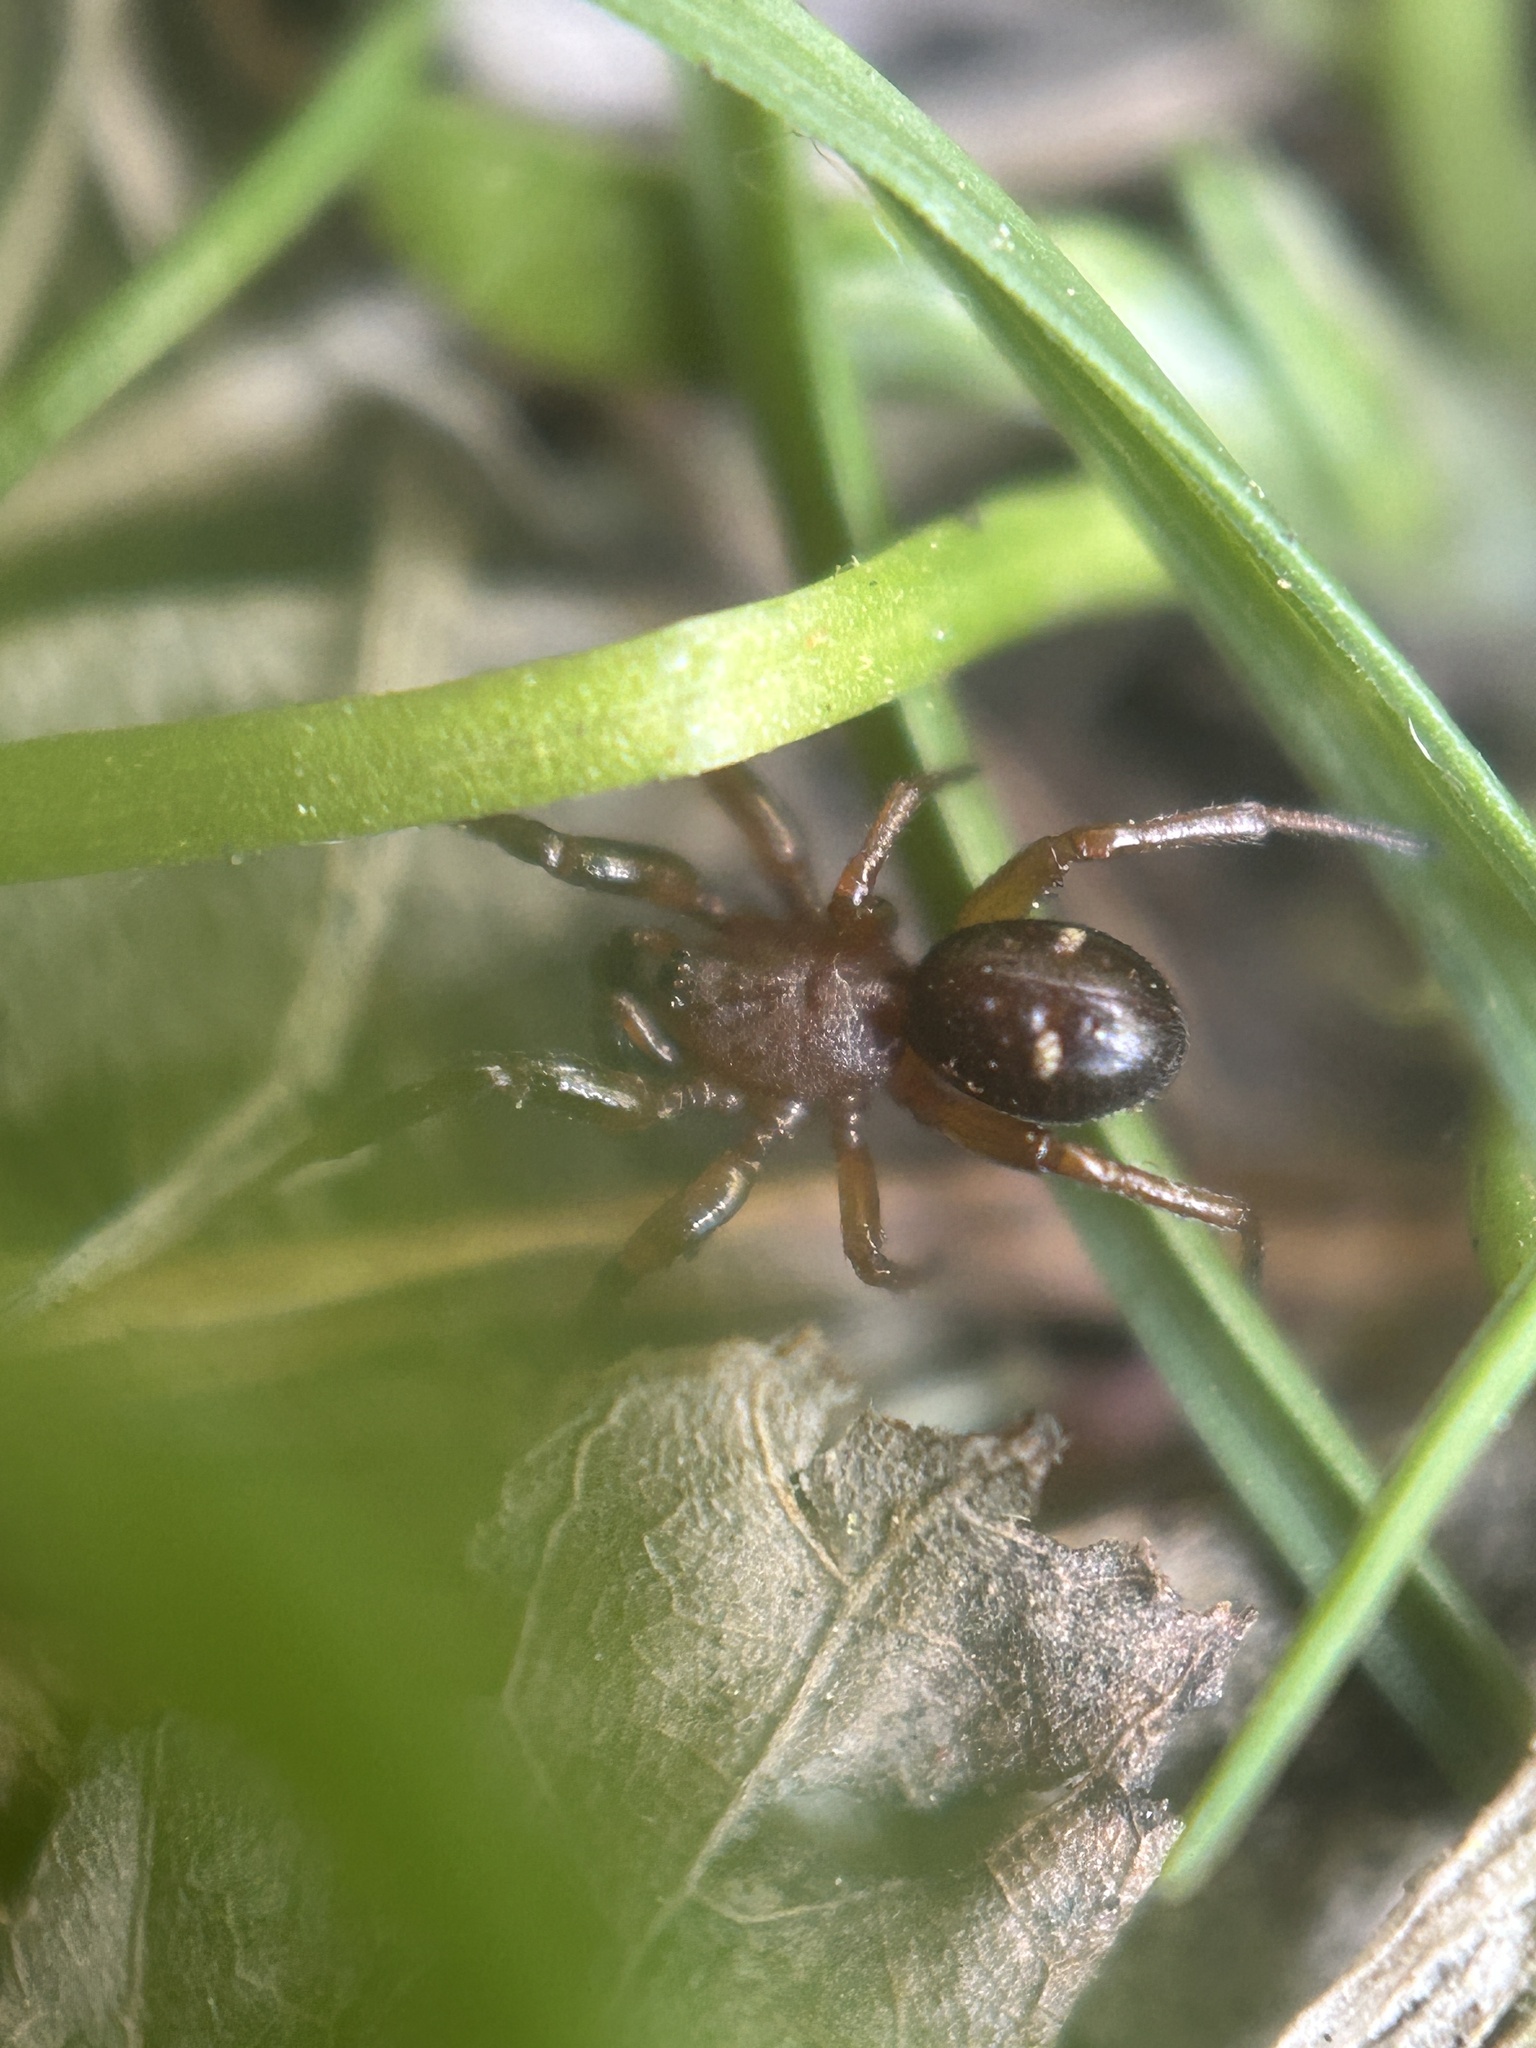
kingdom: Animalia
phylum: Arthropoda
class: Arachnida
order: Araneae
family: Theridiidae
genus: Asagena
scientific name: Asagena americana
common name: Two-spotted cobweb spider
